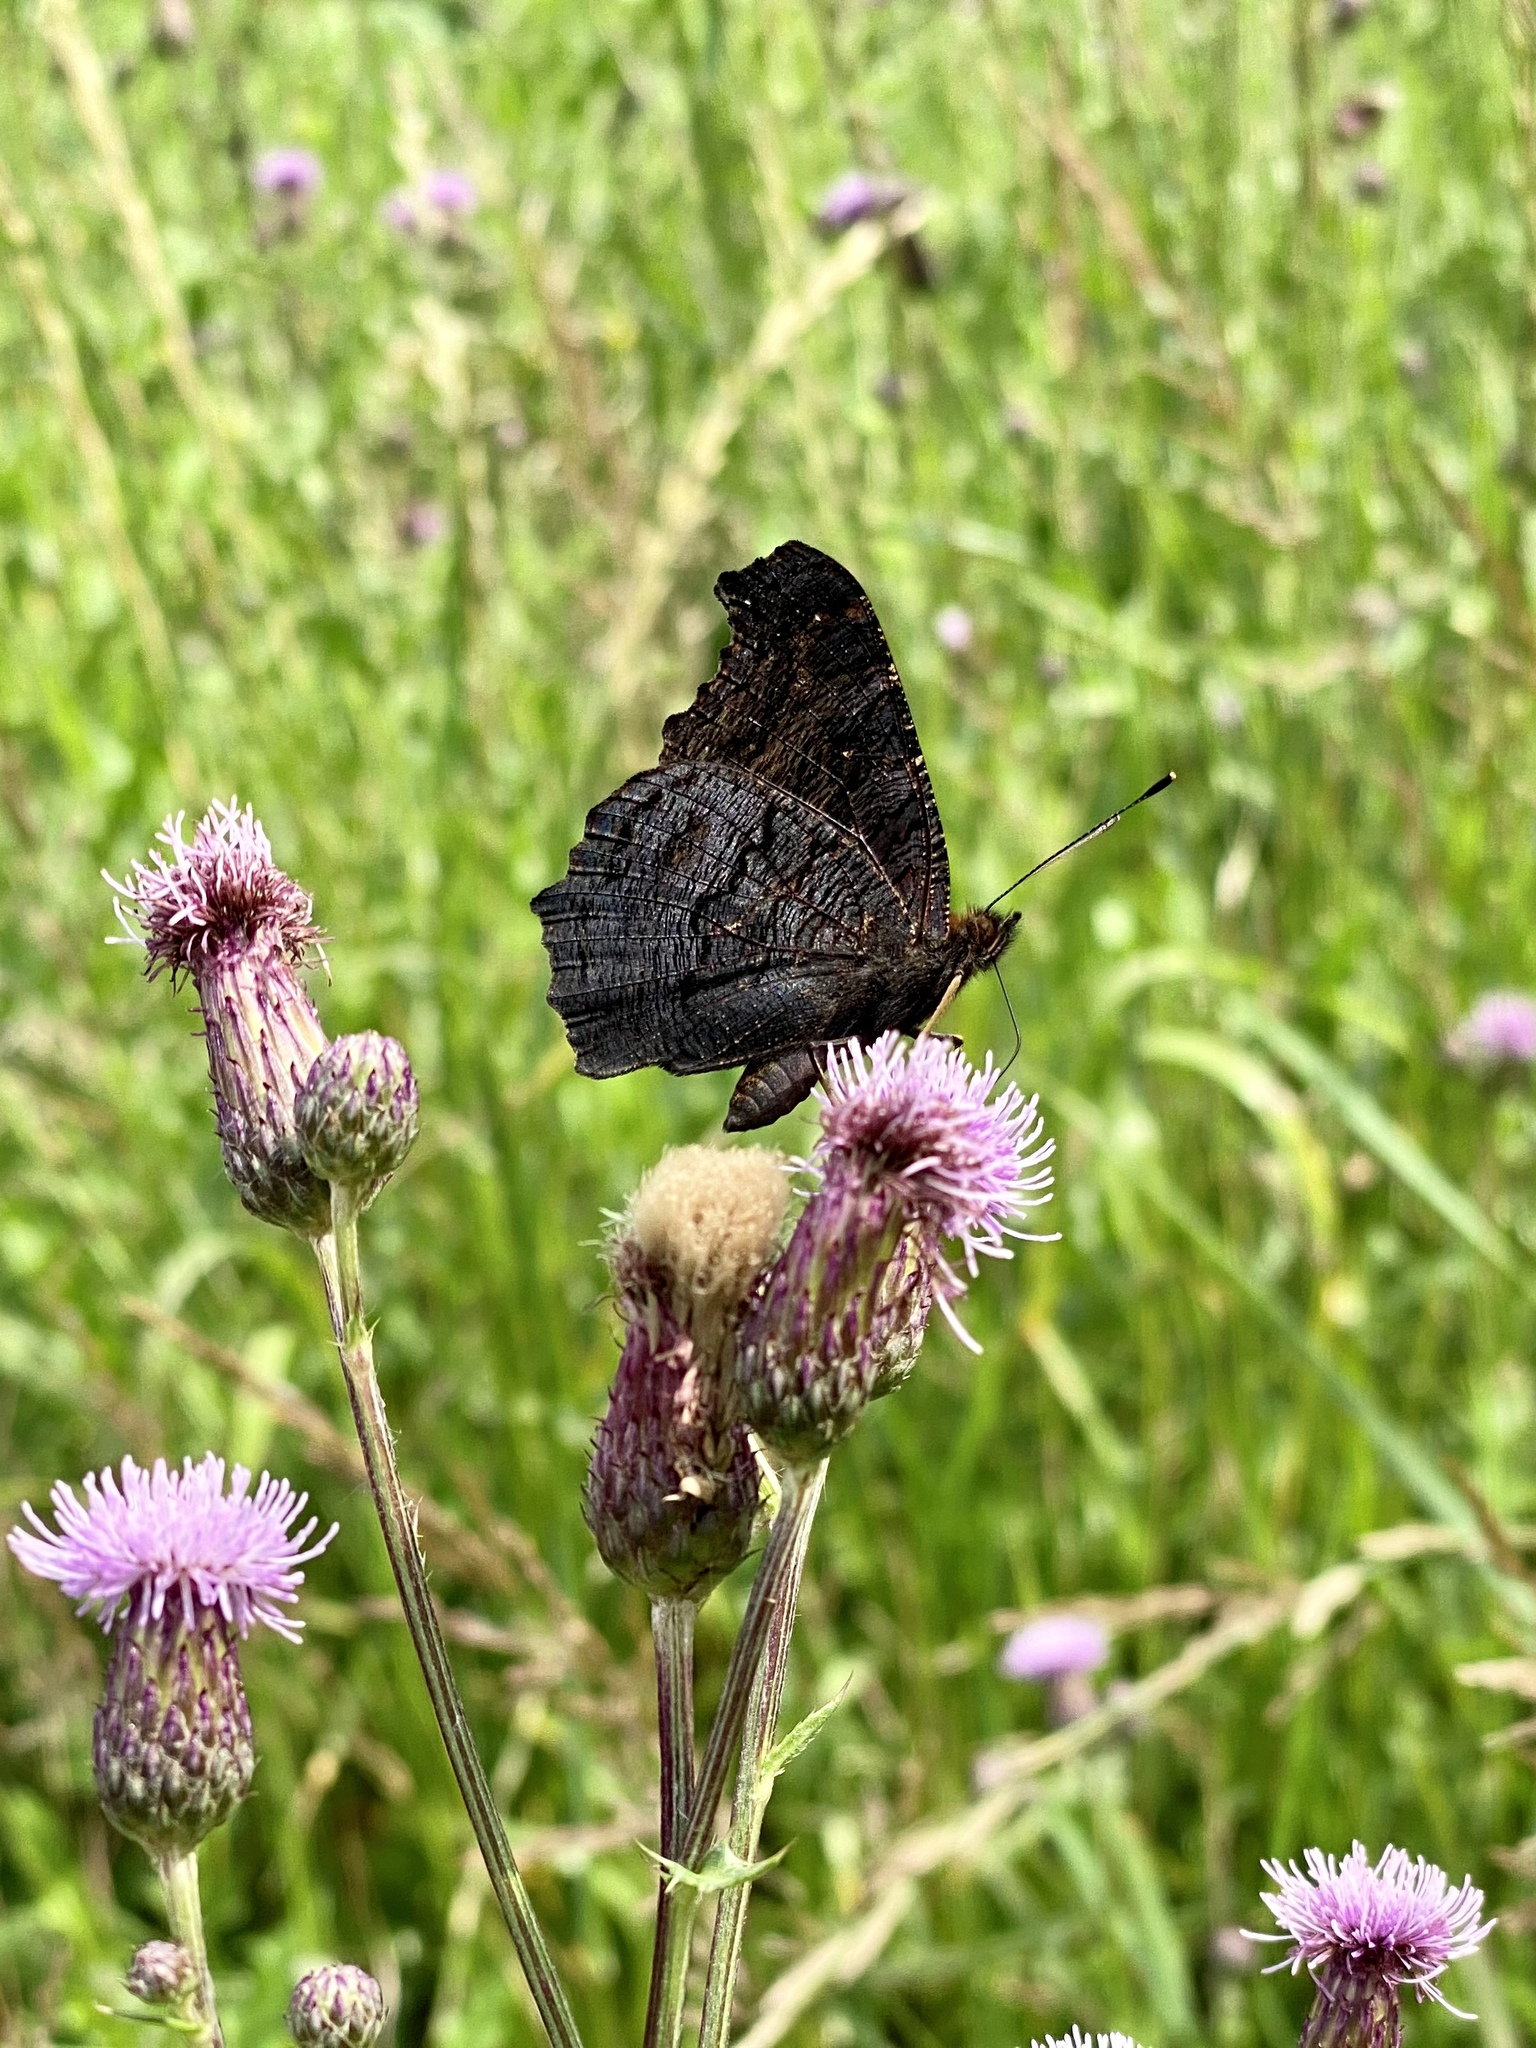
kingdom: Animalia
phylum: Arthropoda
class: Insecta
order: Lepidoptera
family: Nymphalidae
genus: Aglais
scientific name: Aglais io
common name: Peacock
